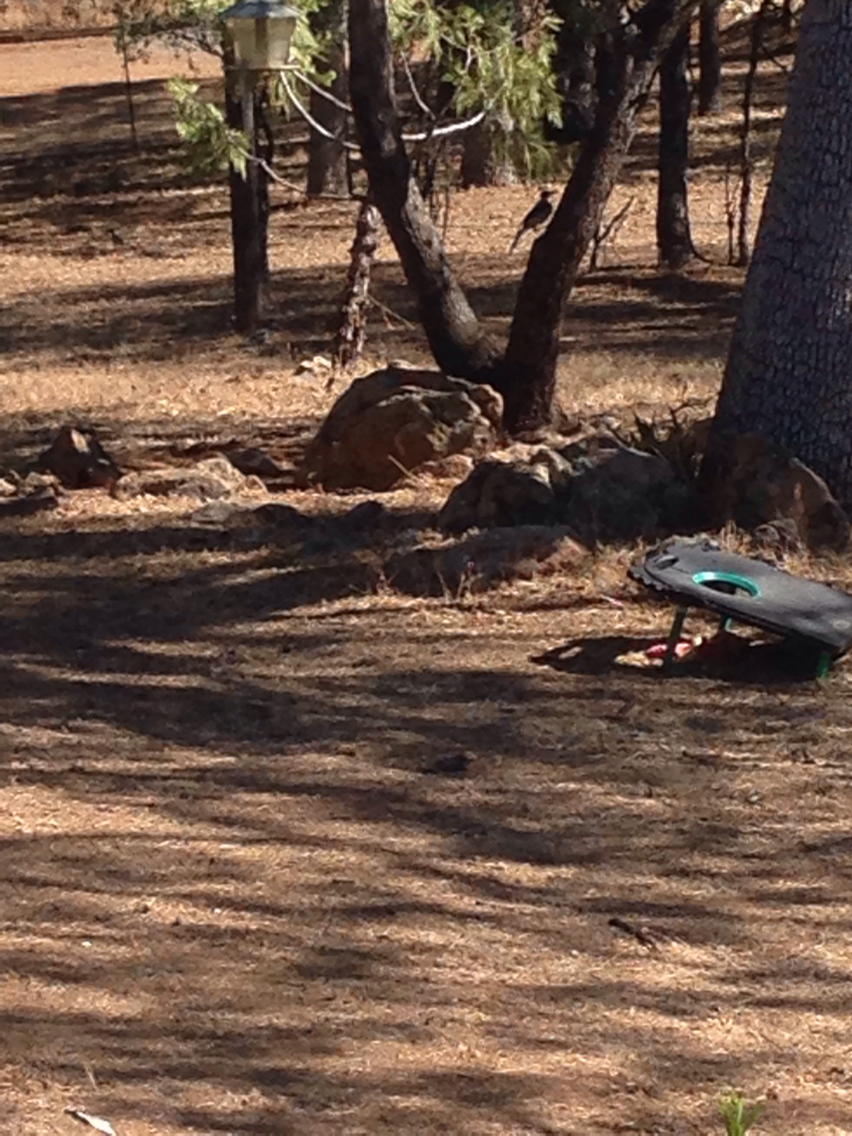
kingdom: Animalia
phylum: Chordata
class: Aves
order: Passeriformes
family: Corvidae
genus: Aphelocoma
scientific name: Aphelocoma californica
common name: California scrub-jay
